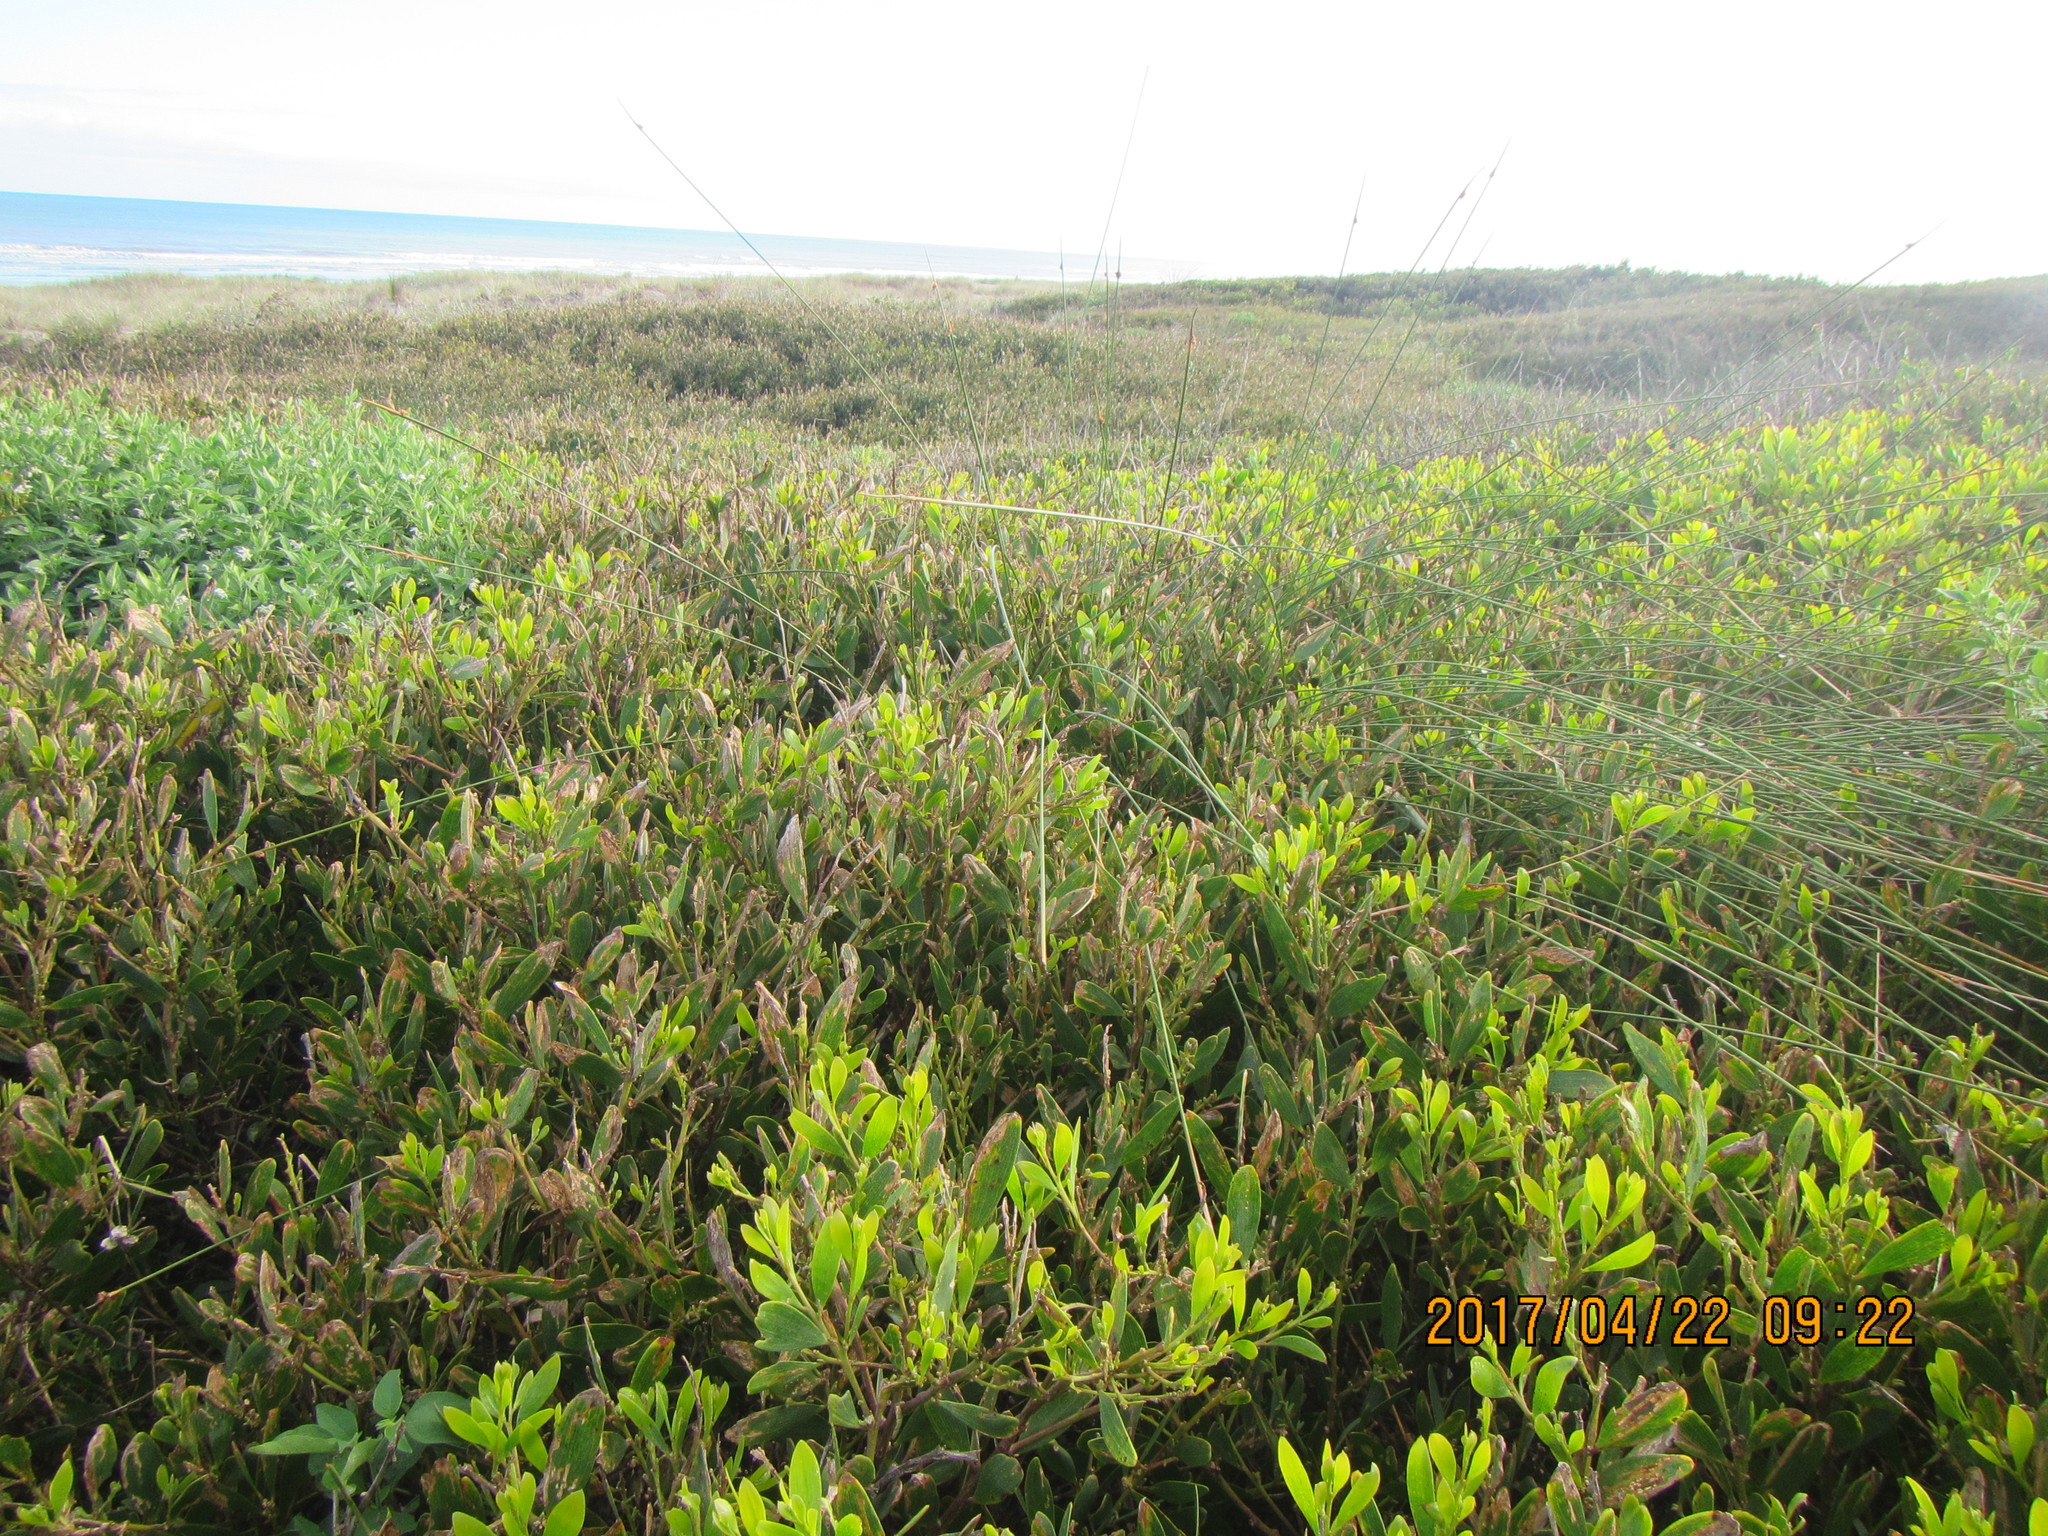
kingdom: Plantae
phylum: Tracheophyta
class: Magnoliopsida
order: Fabales
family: Fabaceae
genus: Acacia
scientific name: Acacia longifolia
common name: Sydney golden wattle
